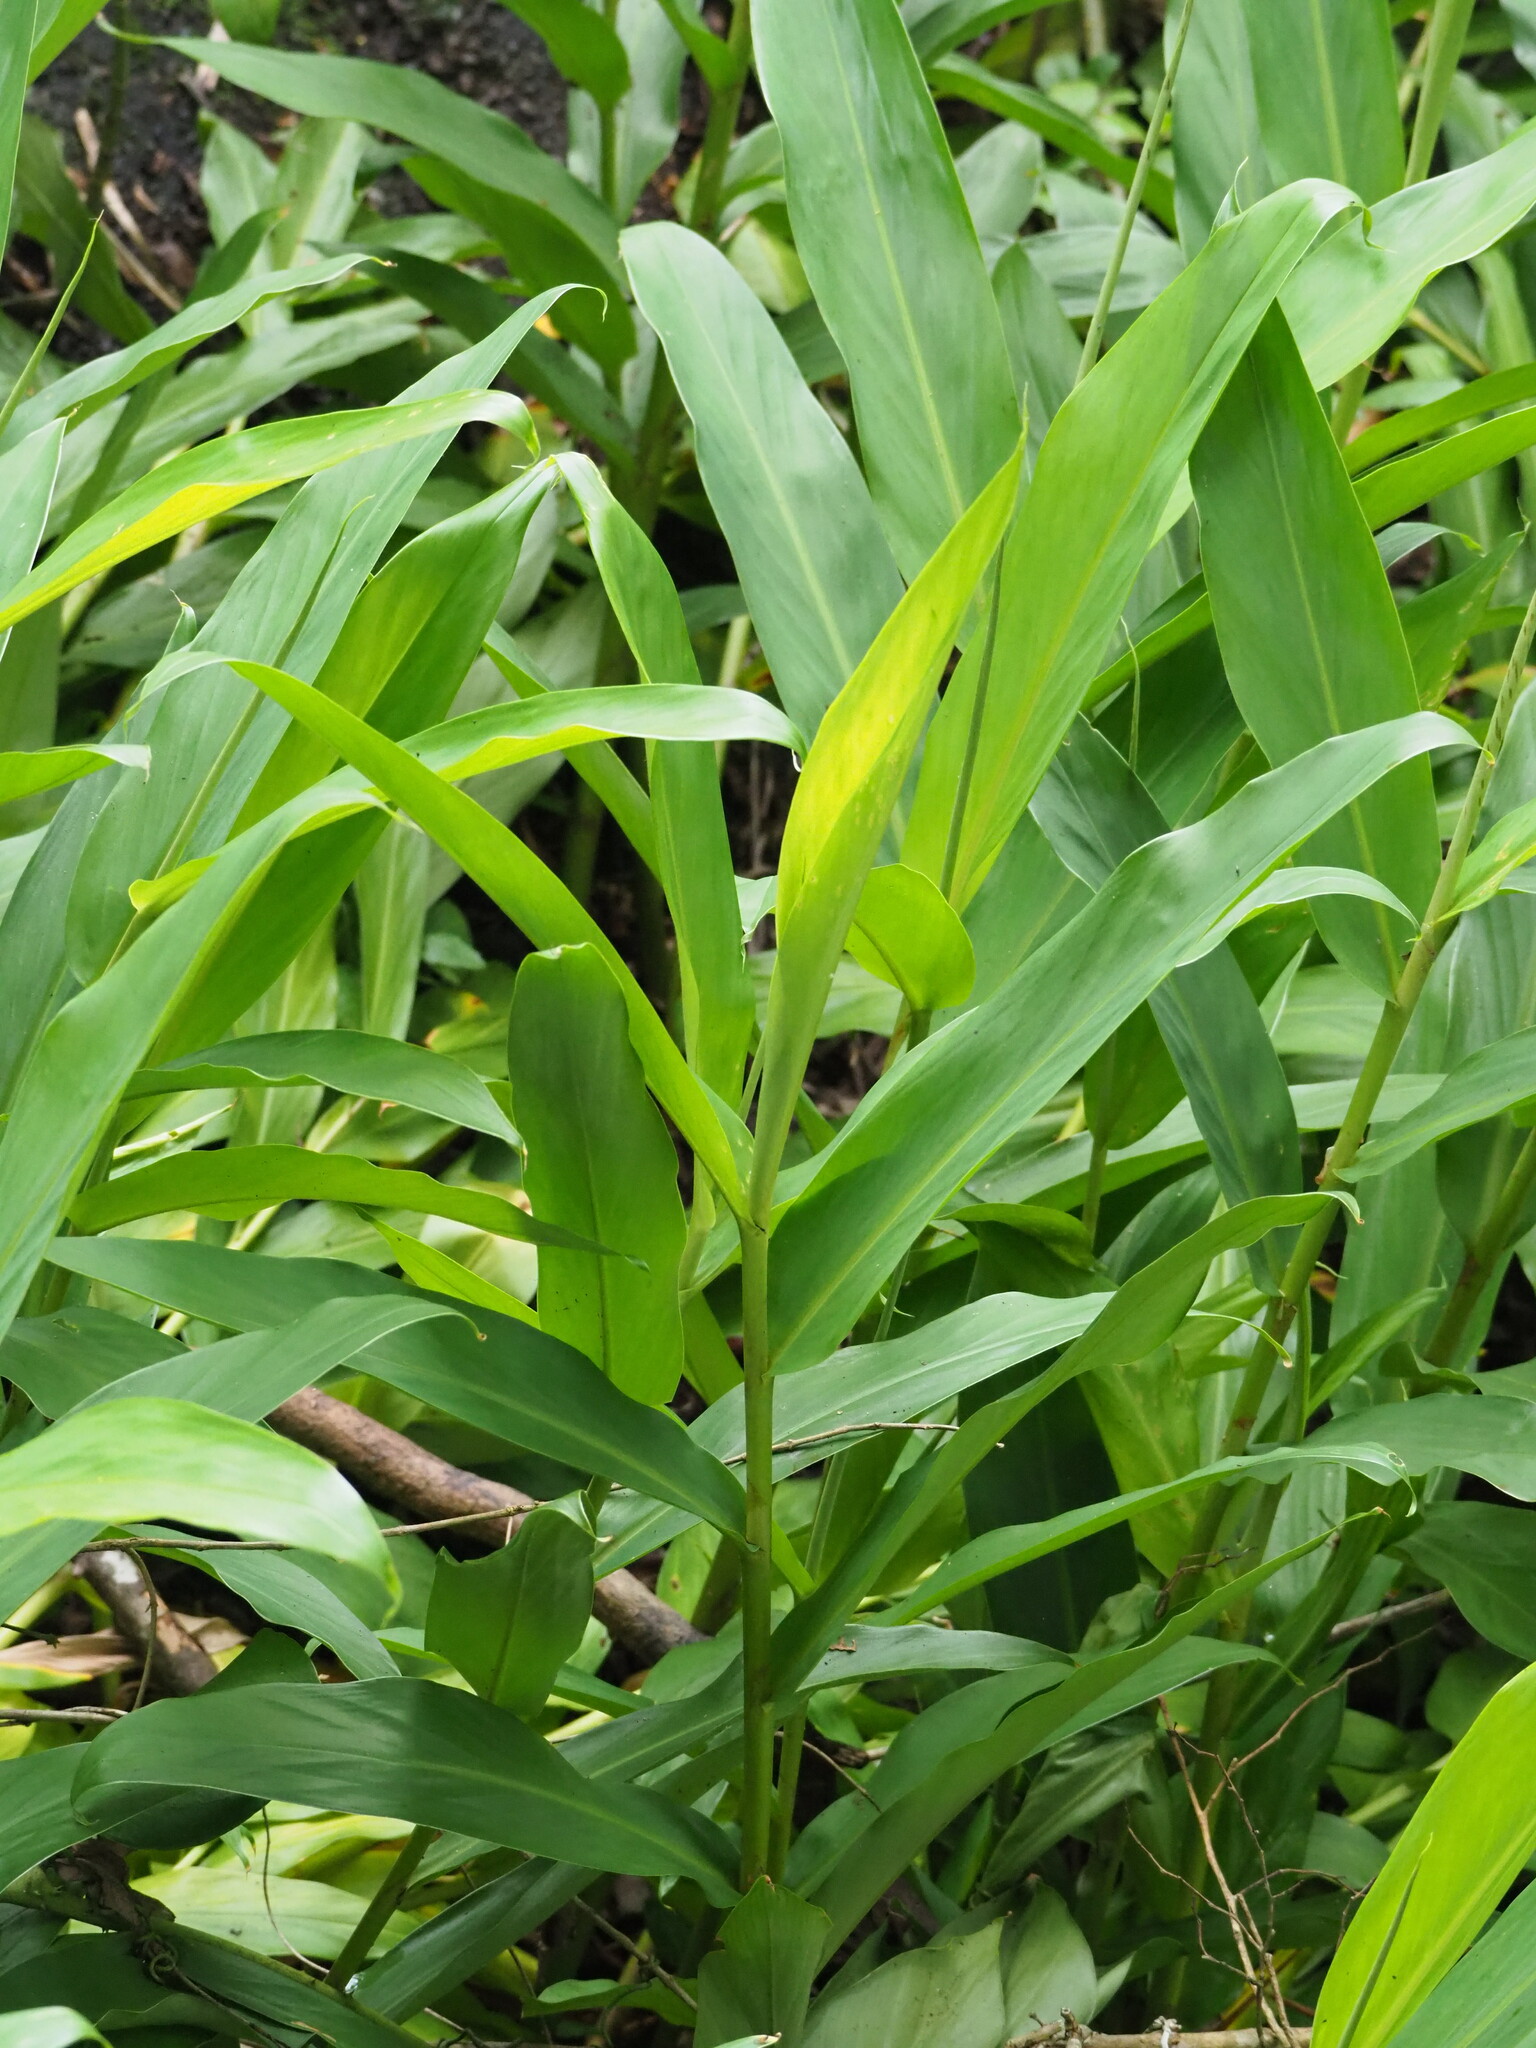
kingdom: Plantae
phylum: Tracheophyta
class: Liliopsida
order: Zingiberales
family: Zingiberaceae
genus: Hedychium
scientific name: Hedychium coronarium
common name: White garland-lily
